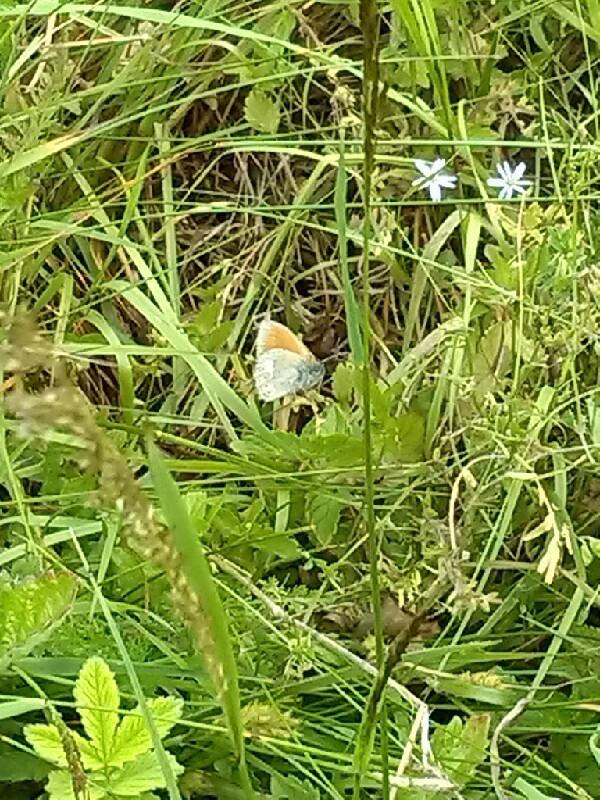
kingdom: Animalia
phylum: Arthropoda
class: Insecta
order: Lepidoptera
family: Nymphalidae
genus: Coenonympha
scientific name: Coenonympha tullia
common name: Large heath
